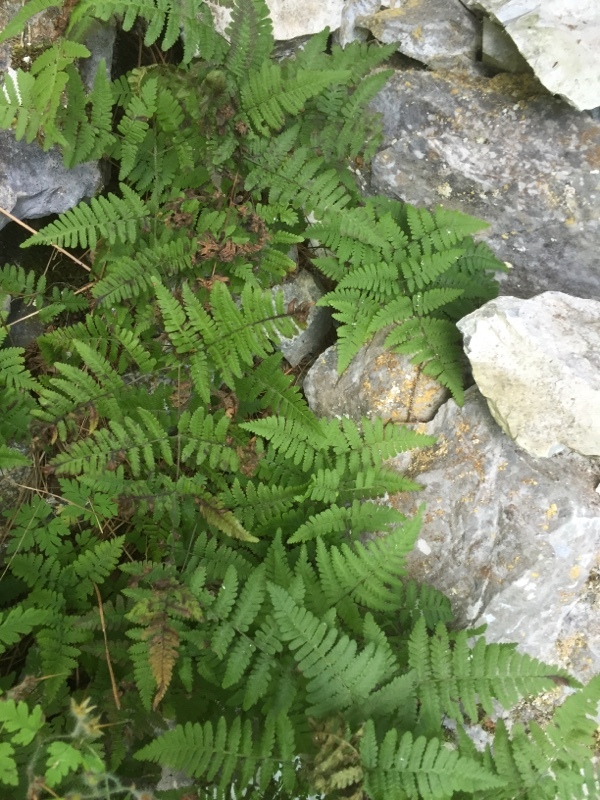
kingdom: Plantae
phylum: Tracheophyta
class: Polypodiopsida
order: Polypodiales
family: Cystopteridaceae
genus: Gymnocarpium
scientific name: Gymnocarpium robertianum
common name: Limestone fern
